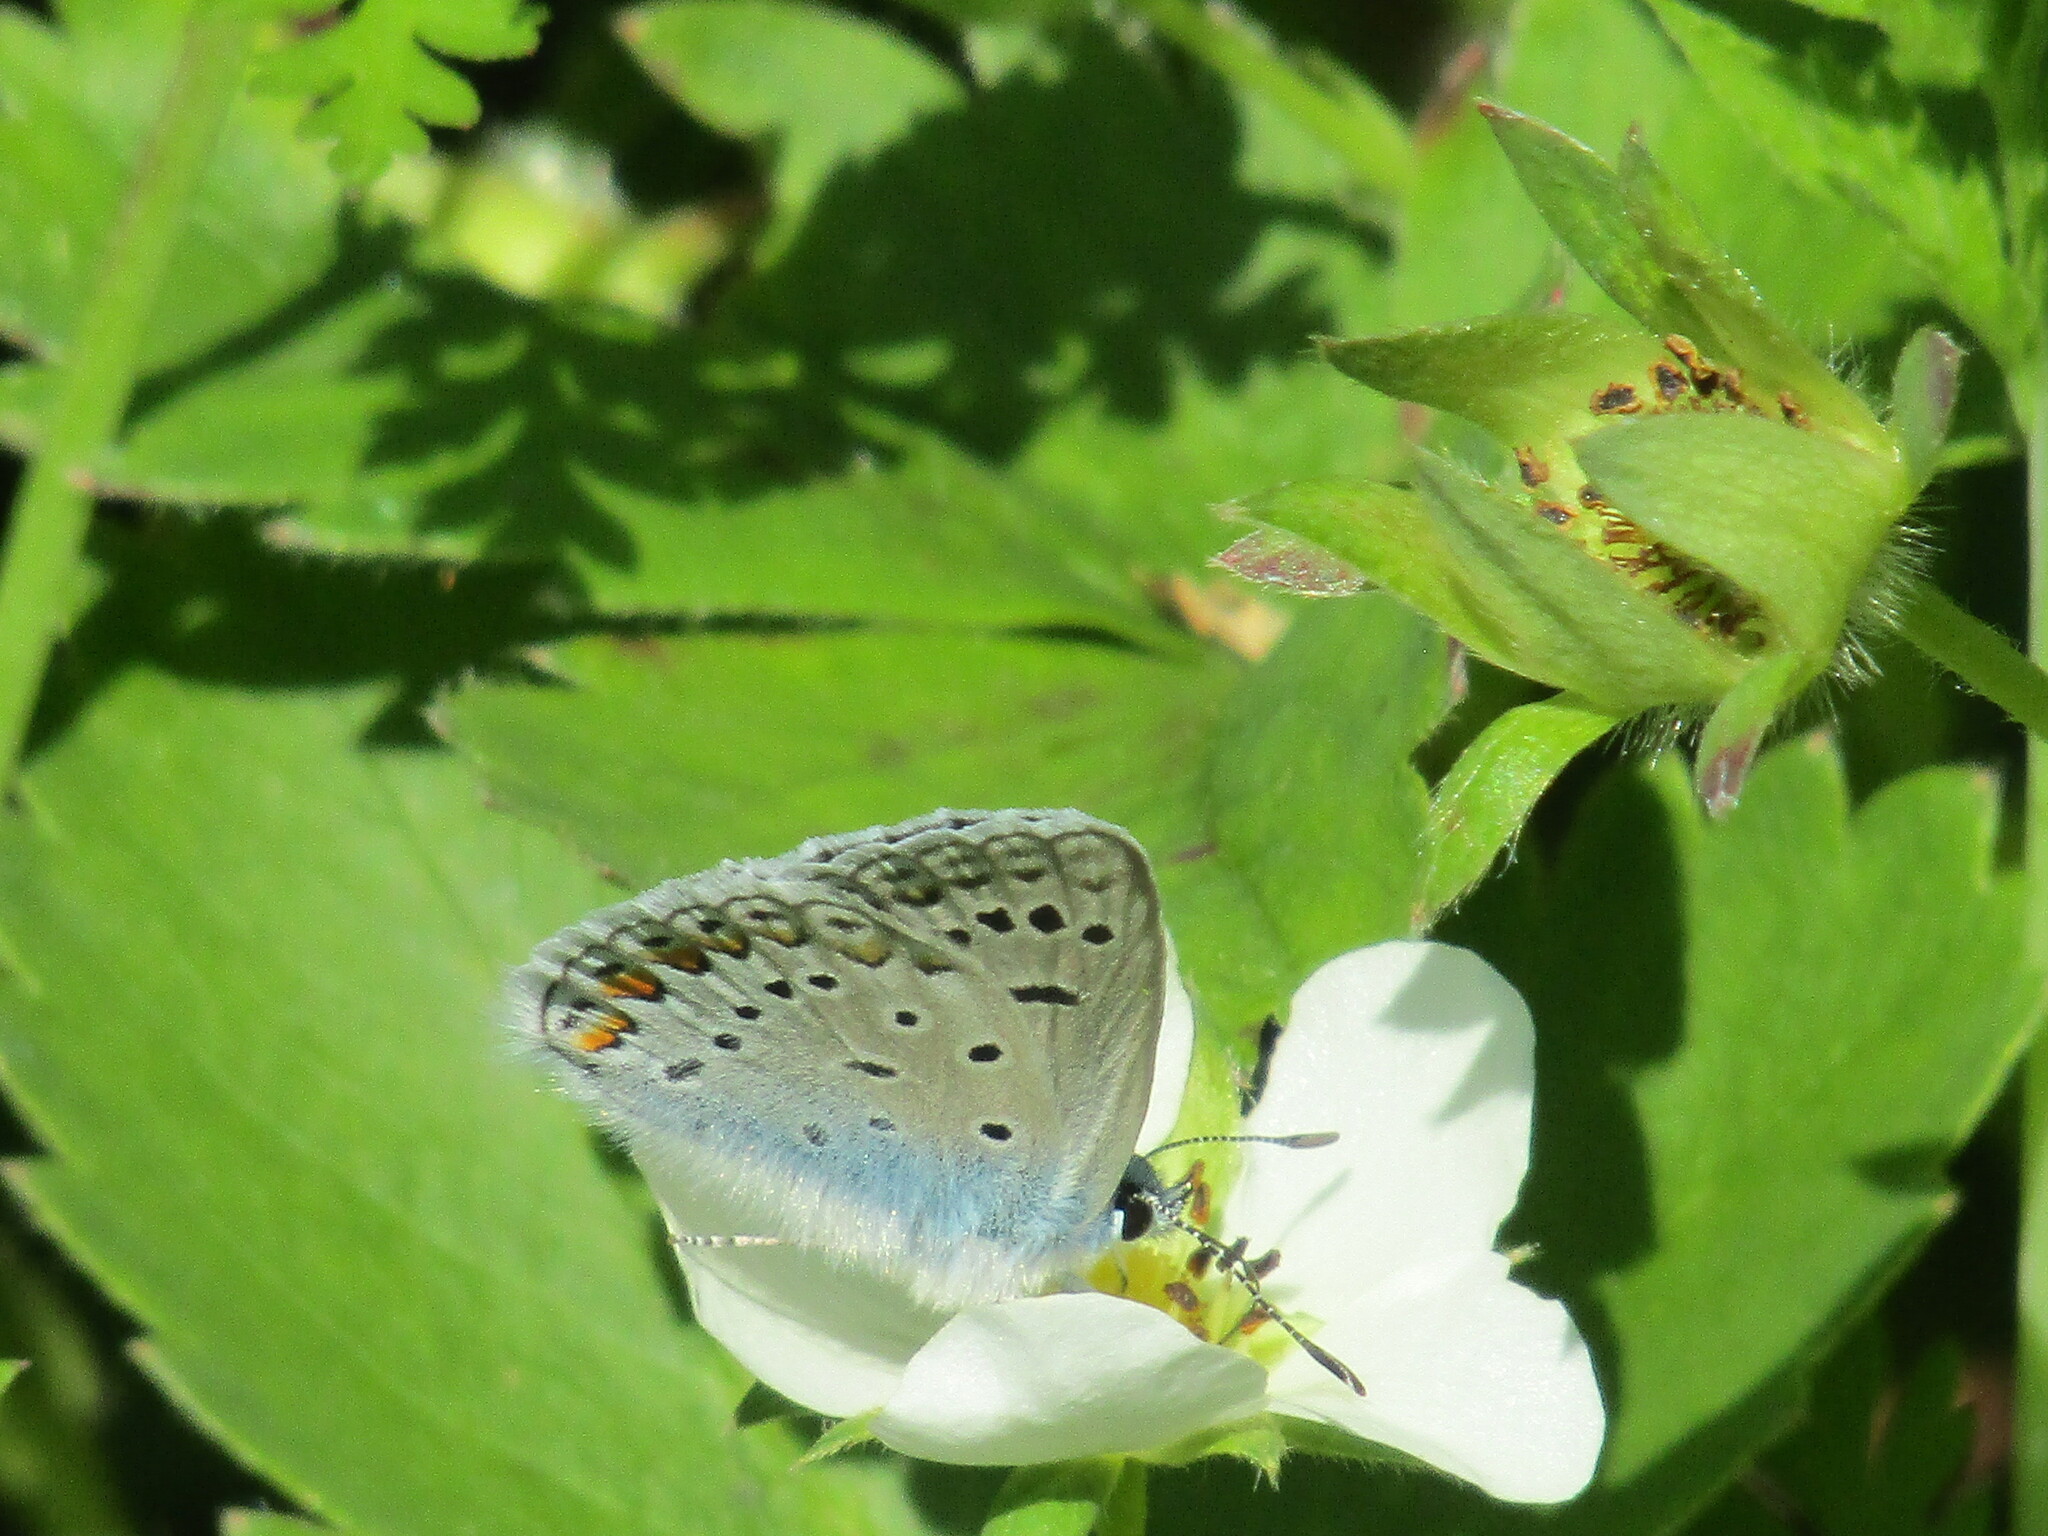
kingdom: Animalia
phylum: Arthropoda
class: Insecta
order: Lepidoptera
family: Lycaenidae
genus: Polyommatus
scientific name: Polyommatus icarus
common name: Common blue
